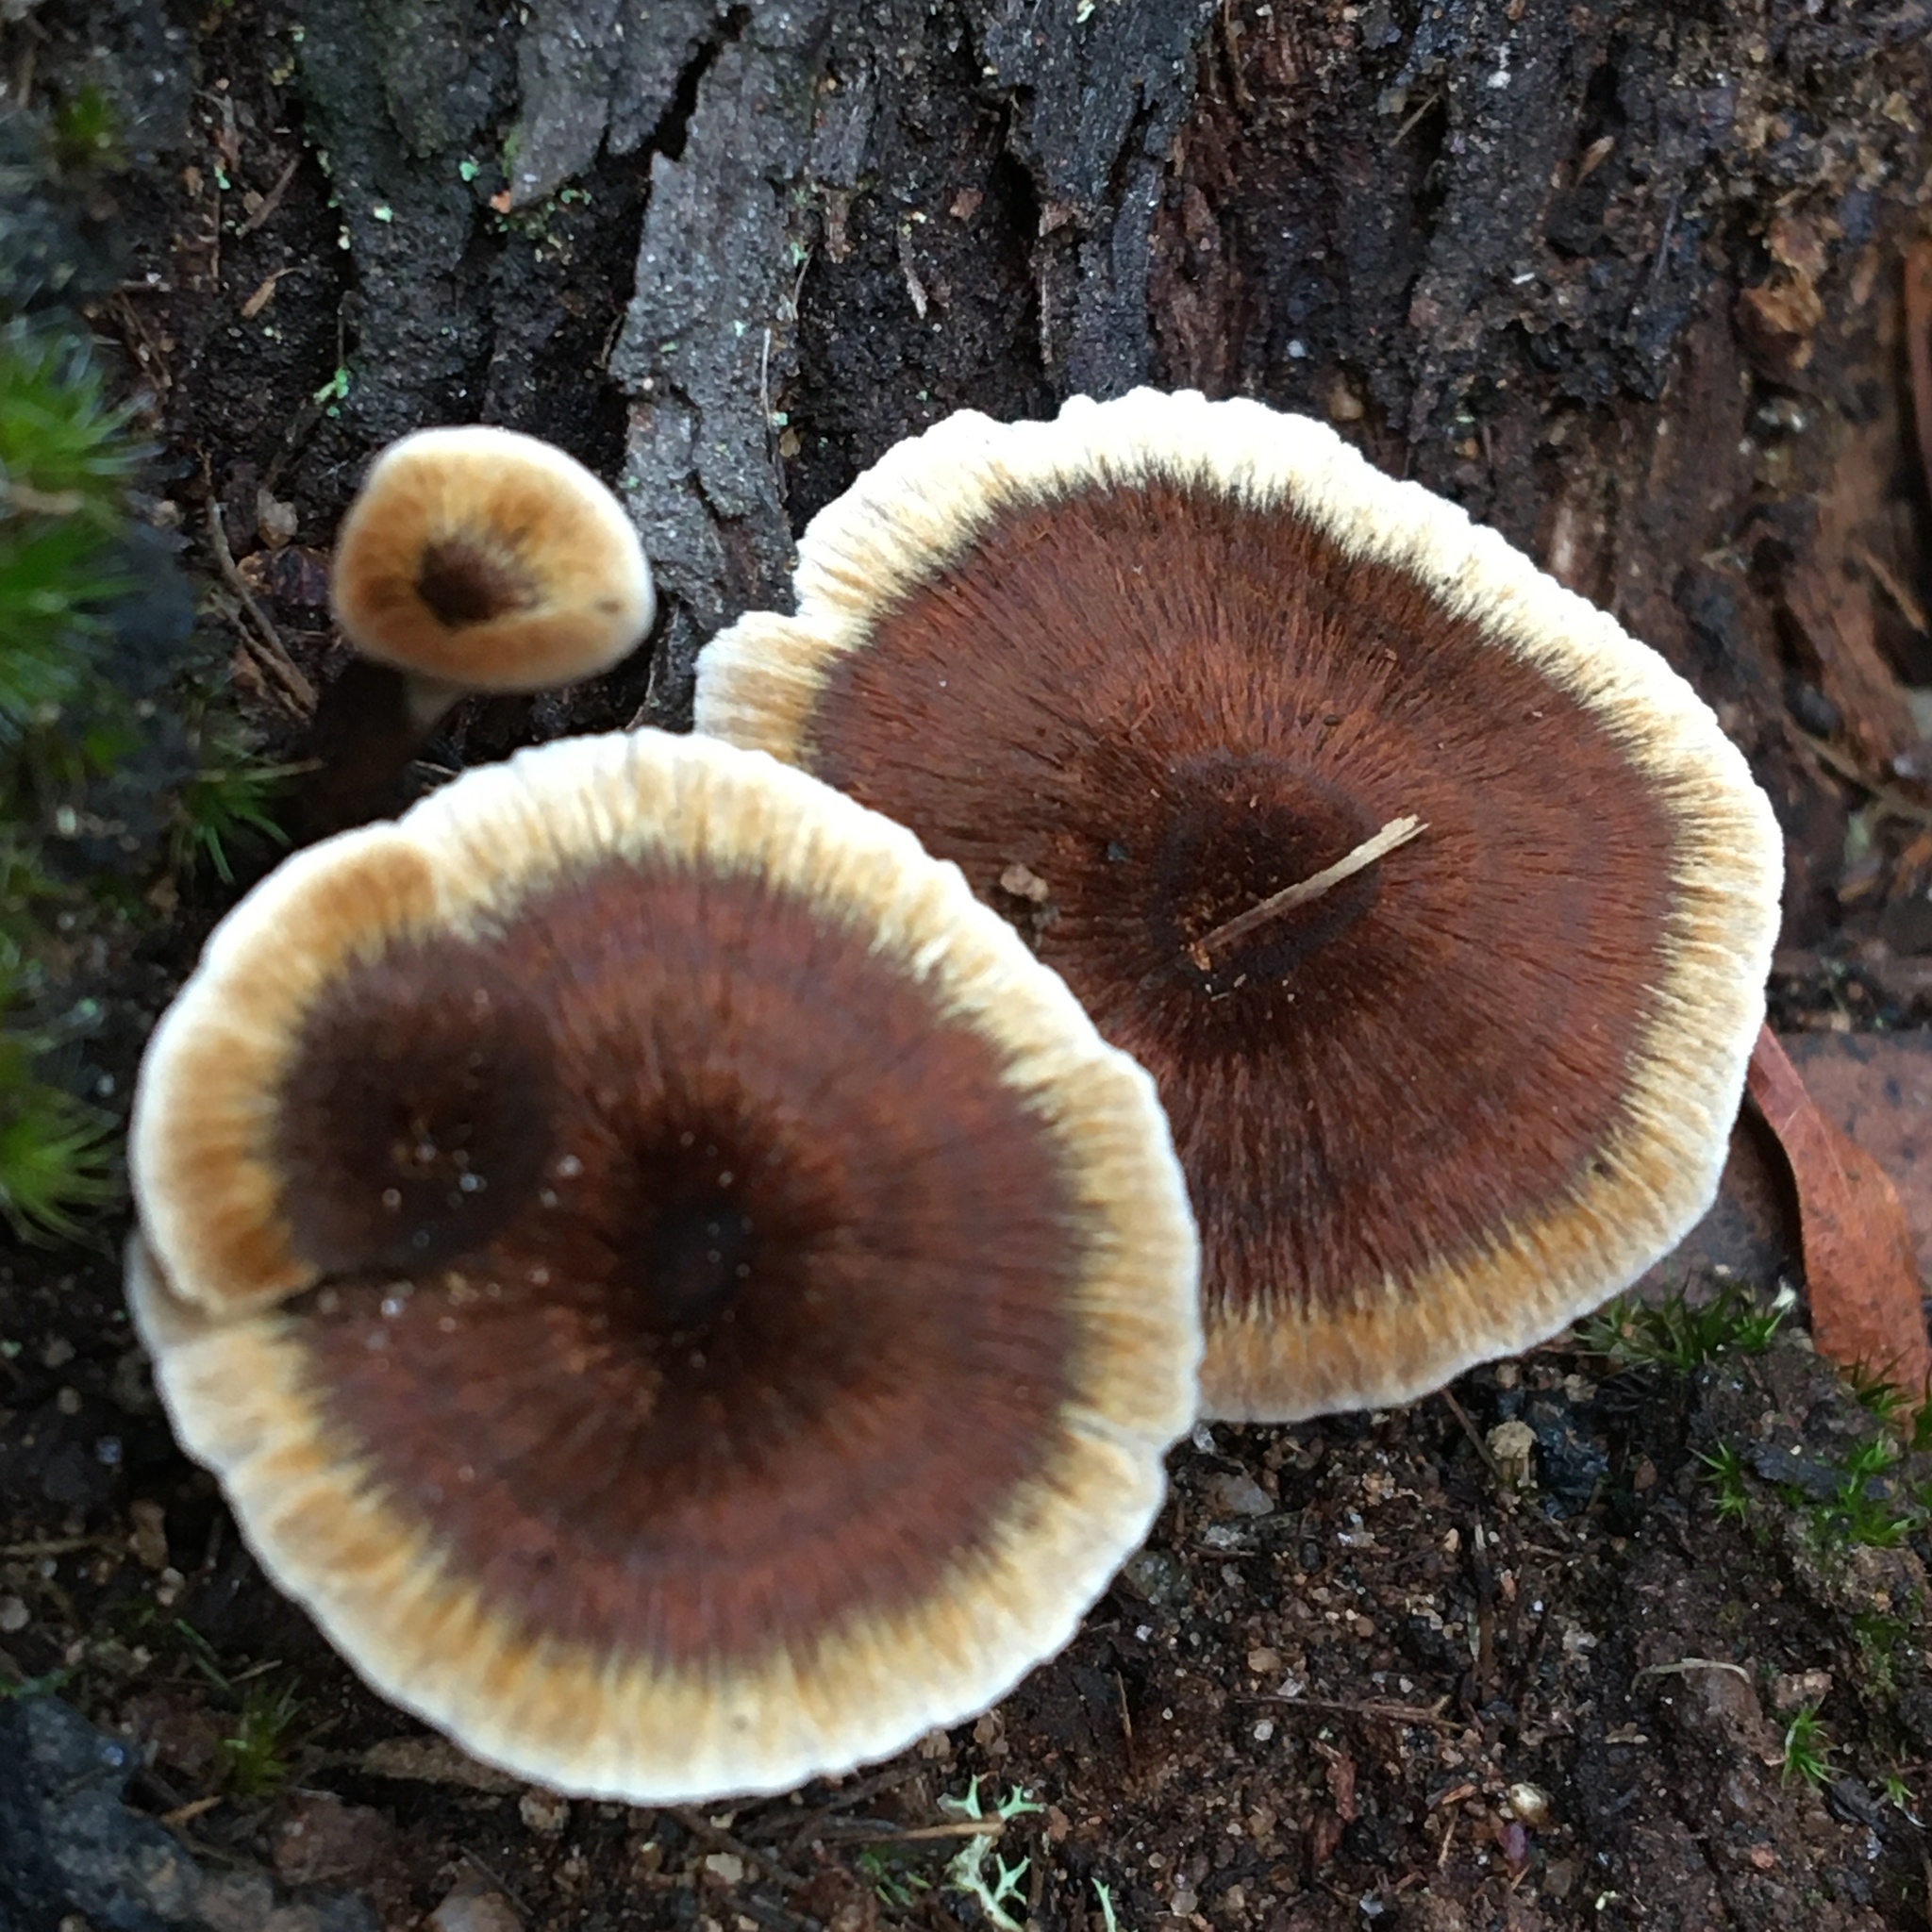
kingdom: Fungi
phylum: Basidiomycota
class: Agaricomycetes
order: Hymenochaetales
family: Hymenochaetaceae
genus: Coltricia
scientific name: Coltricia australica
